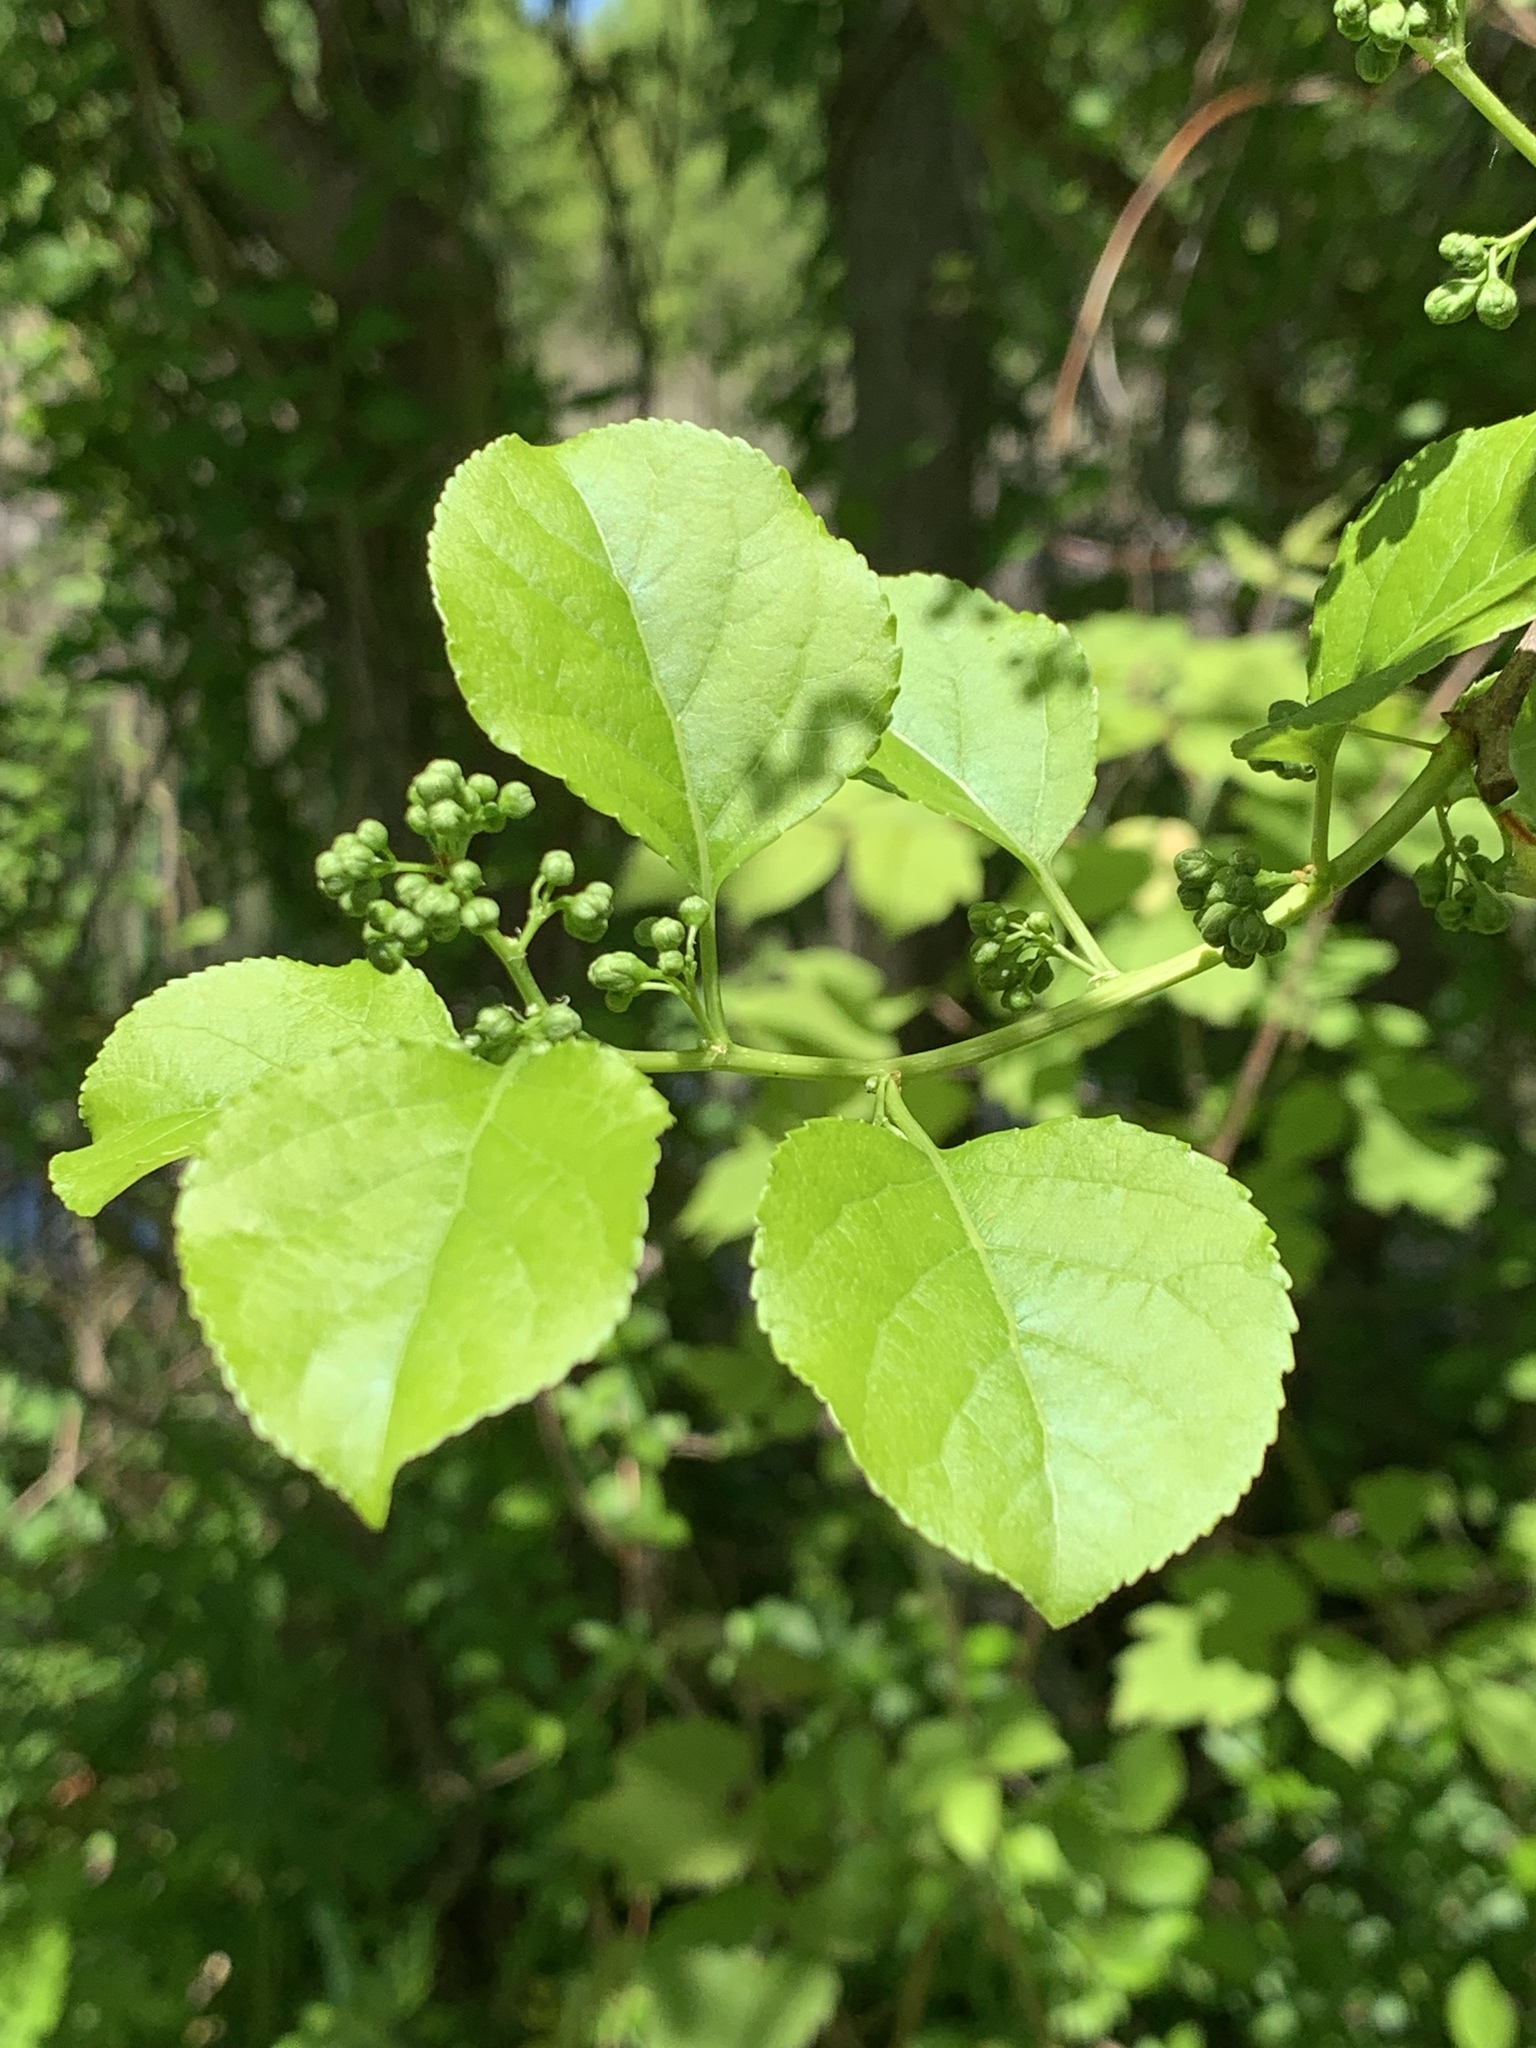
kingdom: Plantae
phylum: Tracheophyta
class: Magnoliopsida
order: Celastrales
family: Celastraceae
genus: Celastrus
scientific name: Celastrus orbiculatus
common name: Oriental bittersweet
